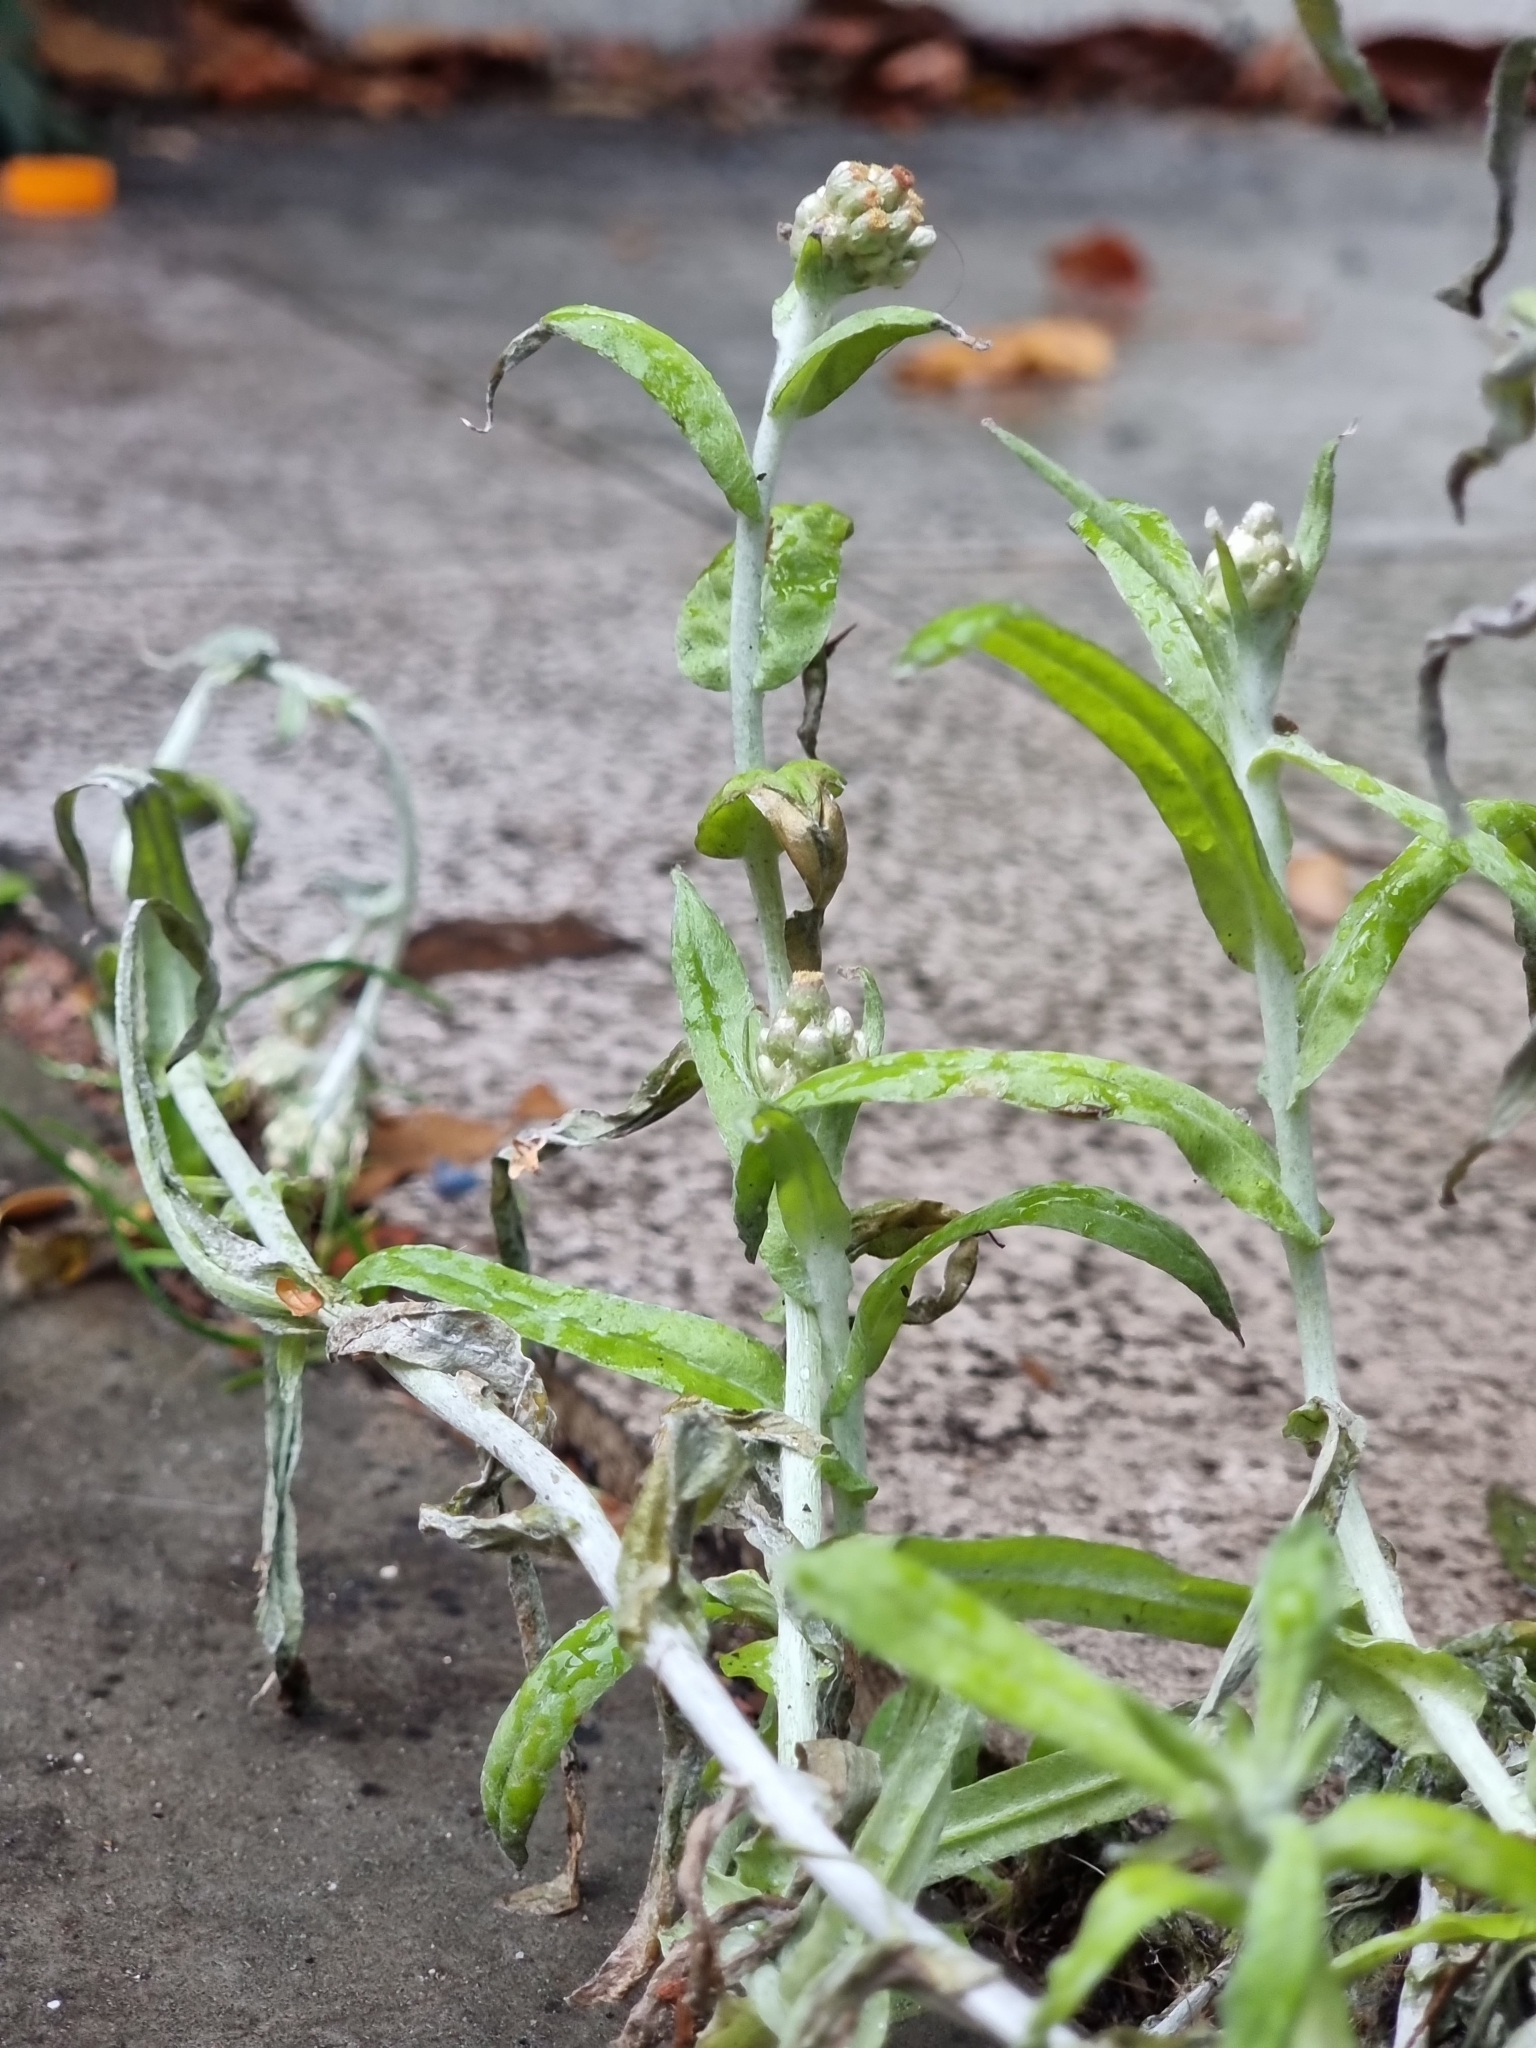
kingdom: Plantae
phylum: Tracheophyta
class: Magnoliopsida
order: Asterales
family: Asteraceae
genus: Helichrysum
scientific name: Helichrysum luteoalbum
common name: Daisy
